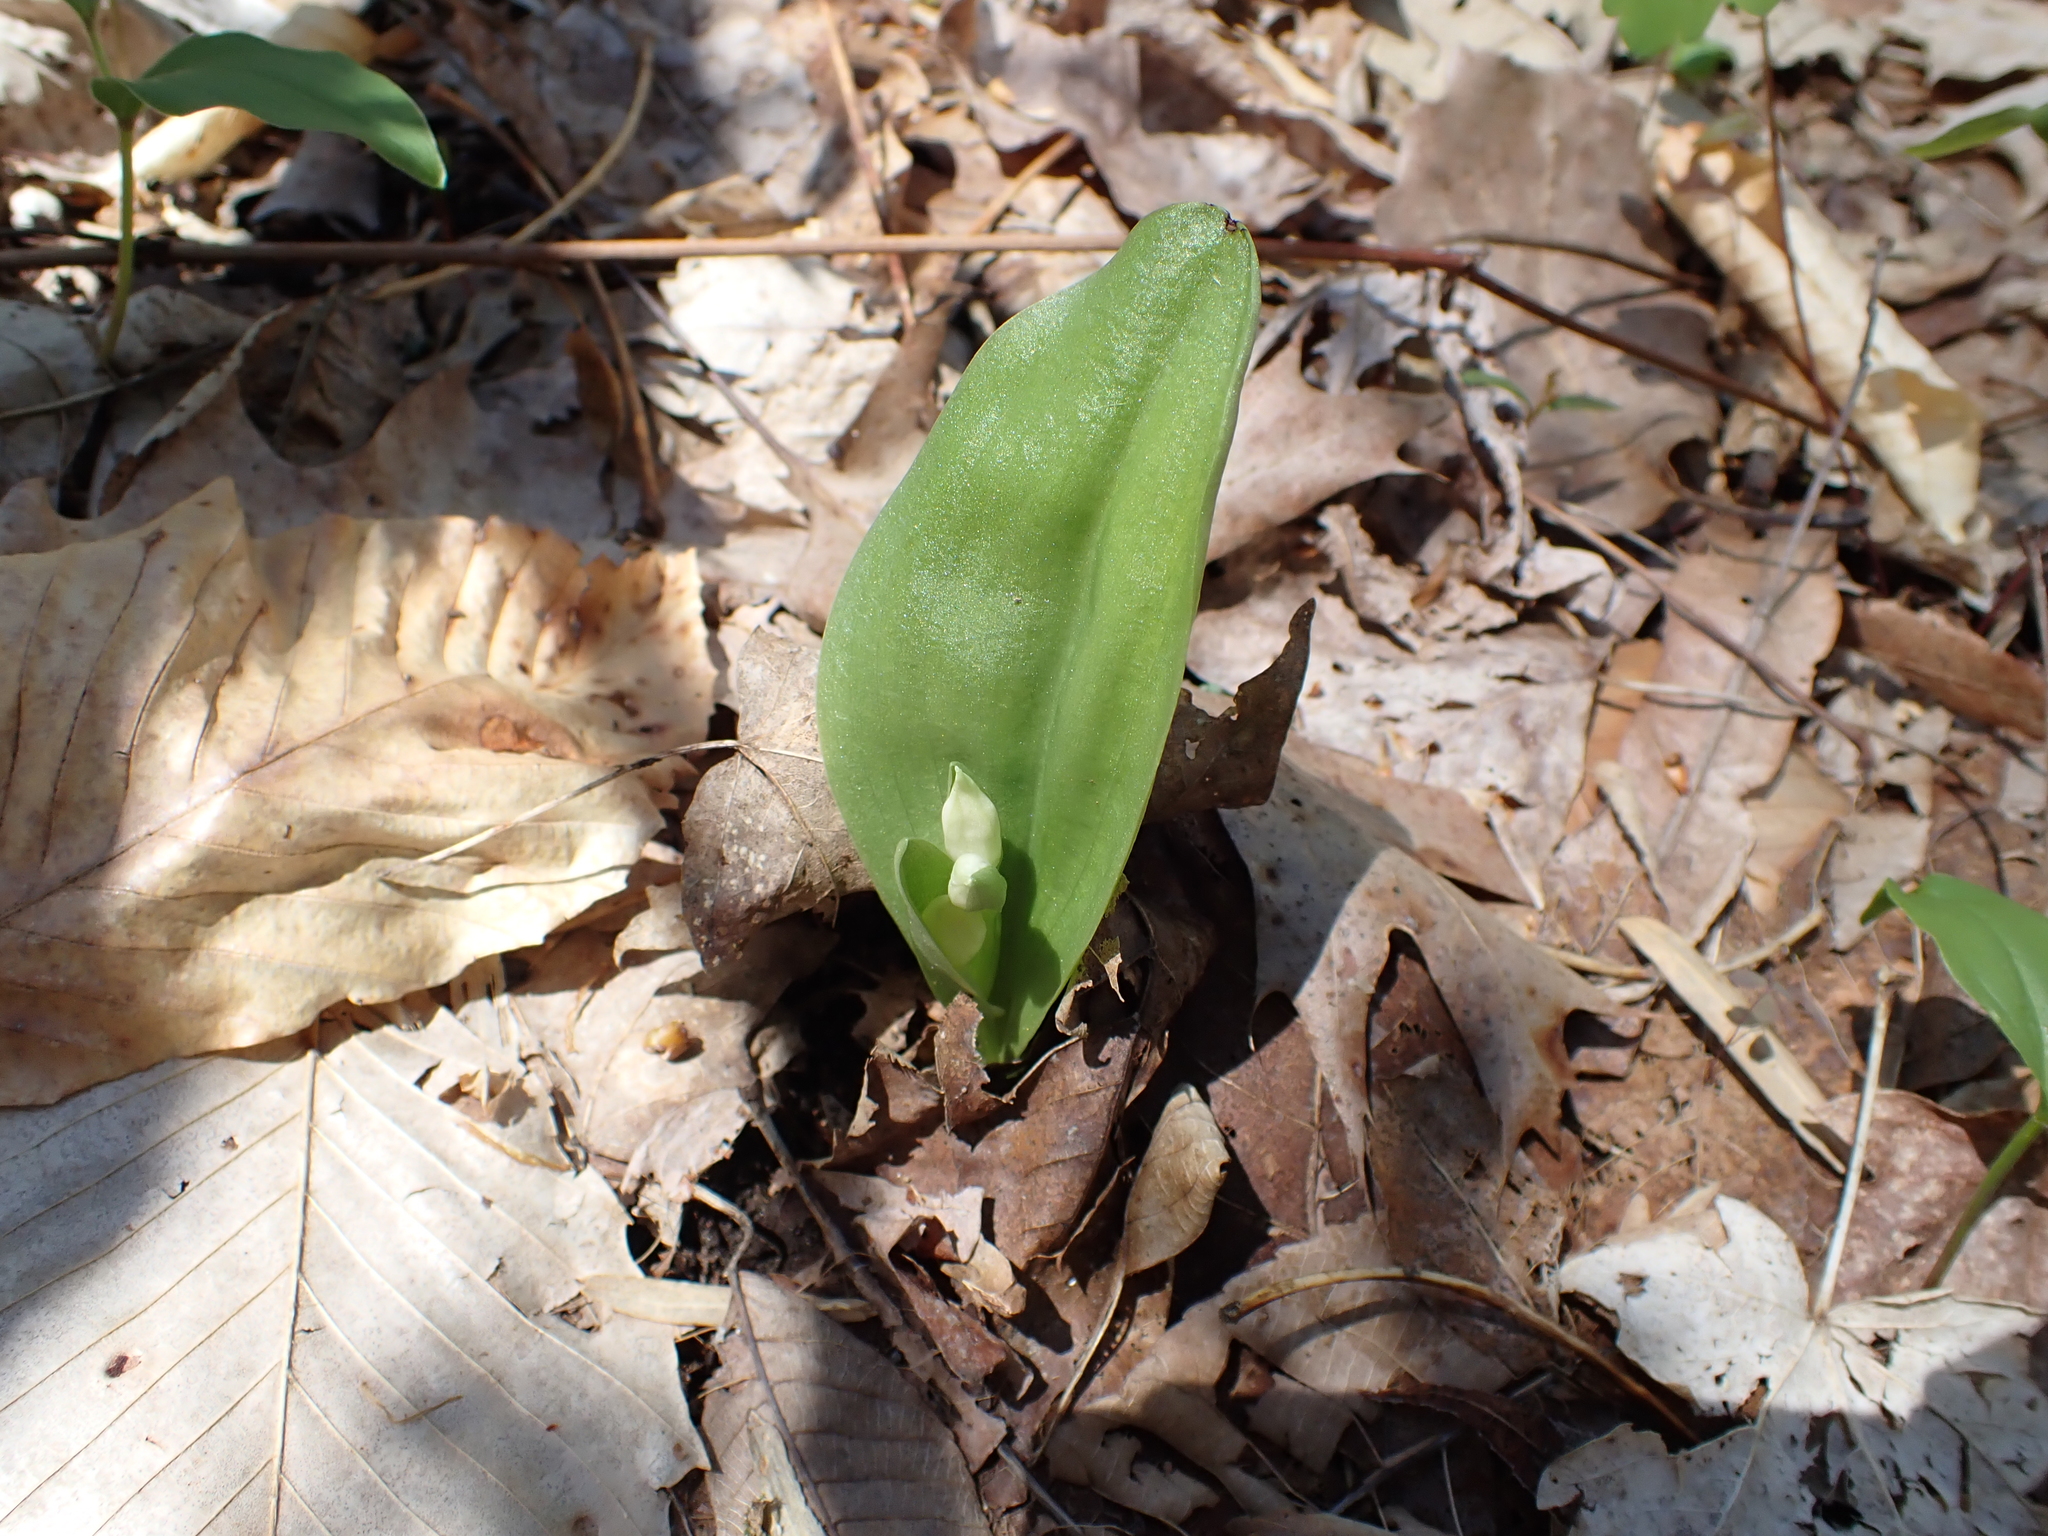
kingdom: Plantae
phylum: Tracheophyta
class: Liliopsida
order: Asparagales
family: Orchidaceae
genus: Galearis
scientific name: Galearis spectabilis
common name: Purple-hooded orchis
